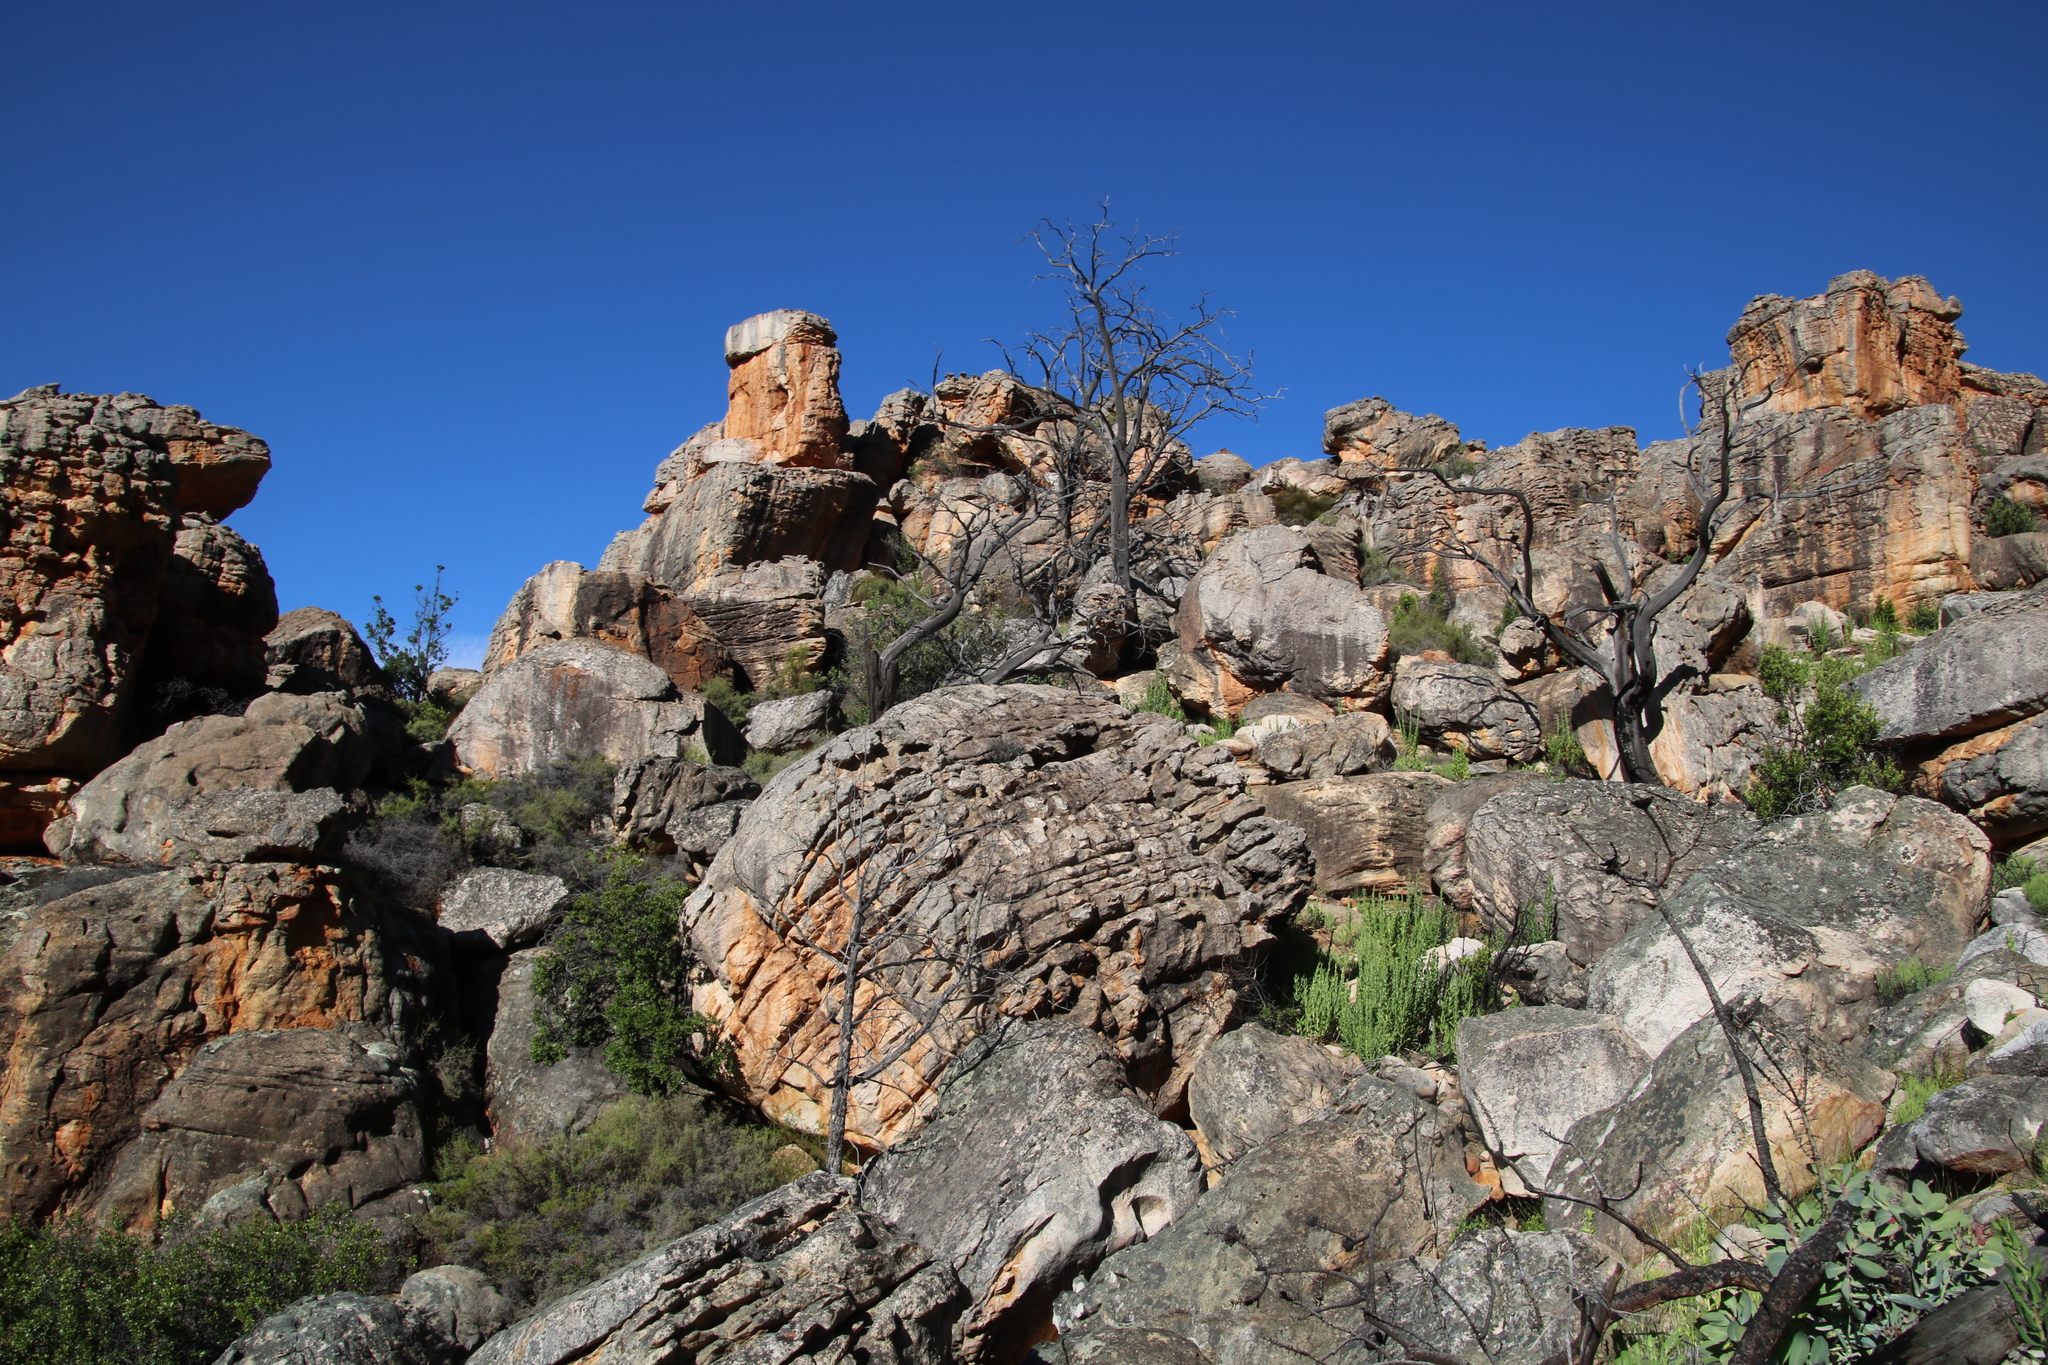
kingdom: Plantae
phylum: Tracheophyta
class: Pinopsida
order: Pinales
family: Cupressaceae
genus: Widdringtonia
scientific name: Widdringtonia nodiflora
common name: Cape cypress
